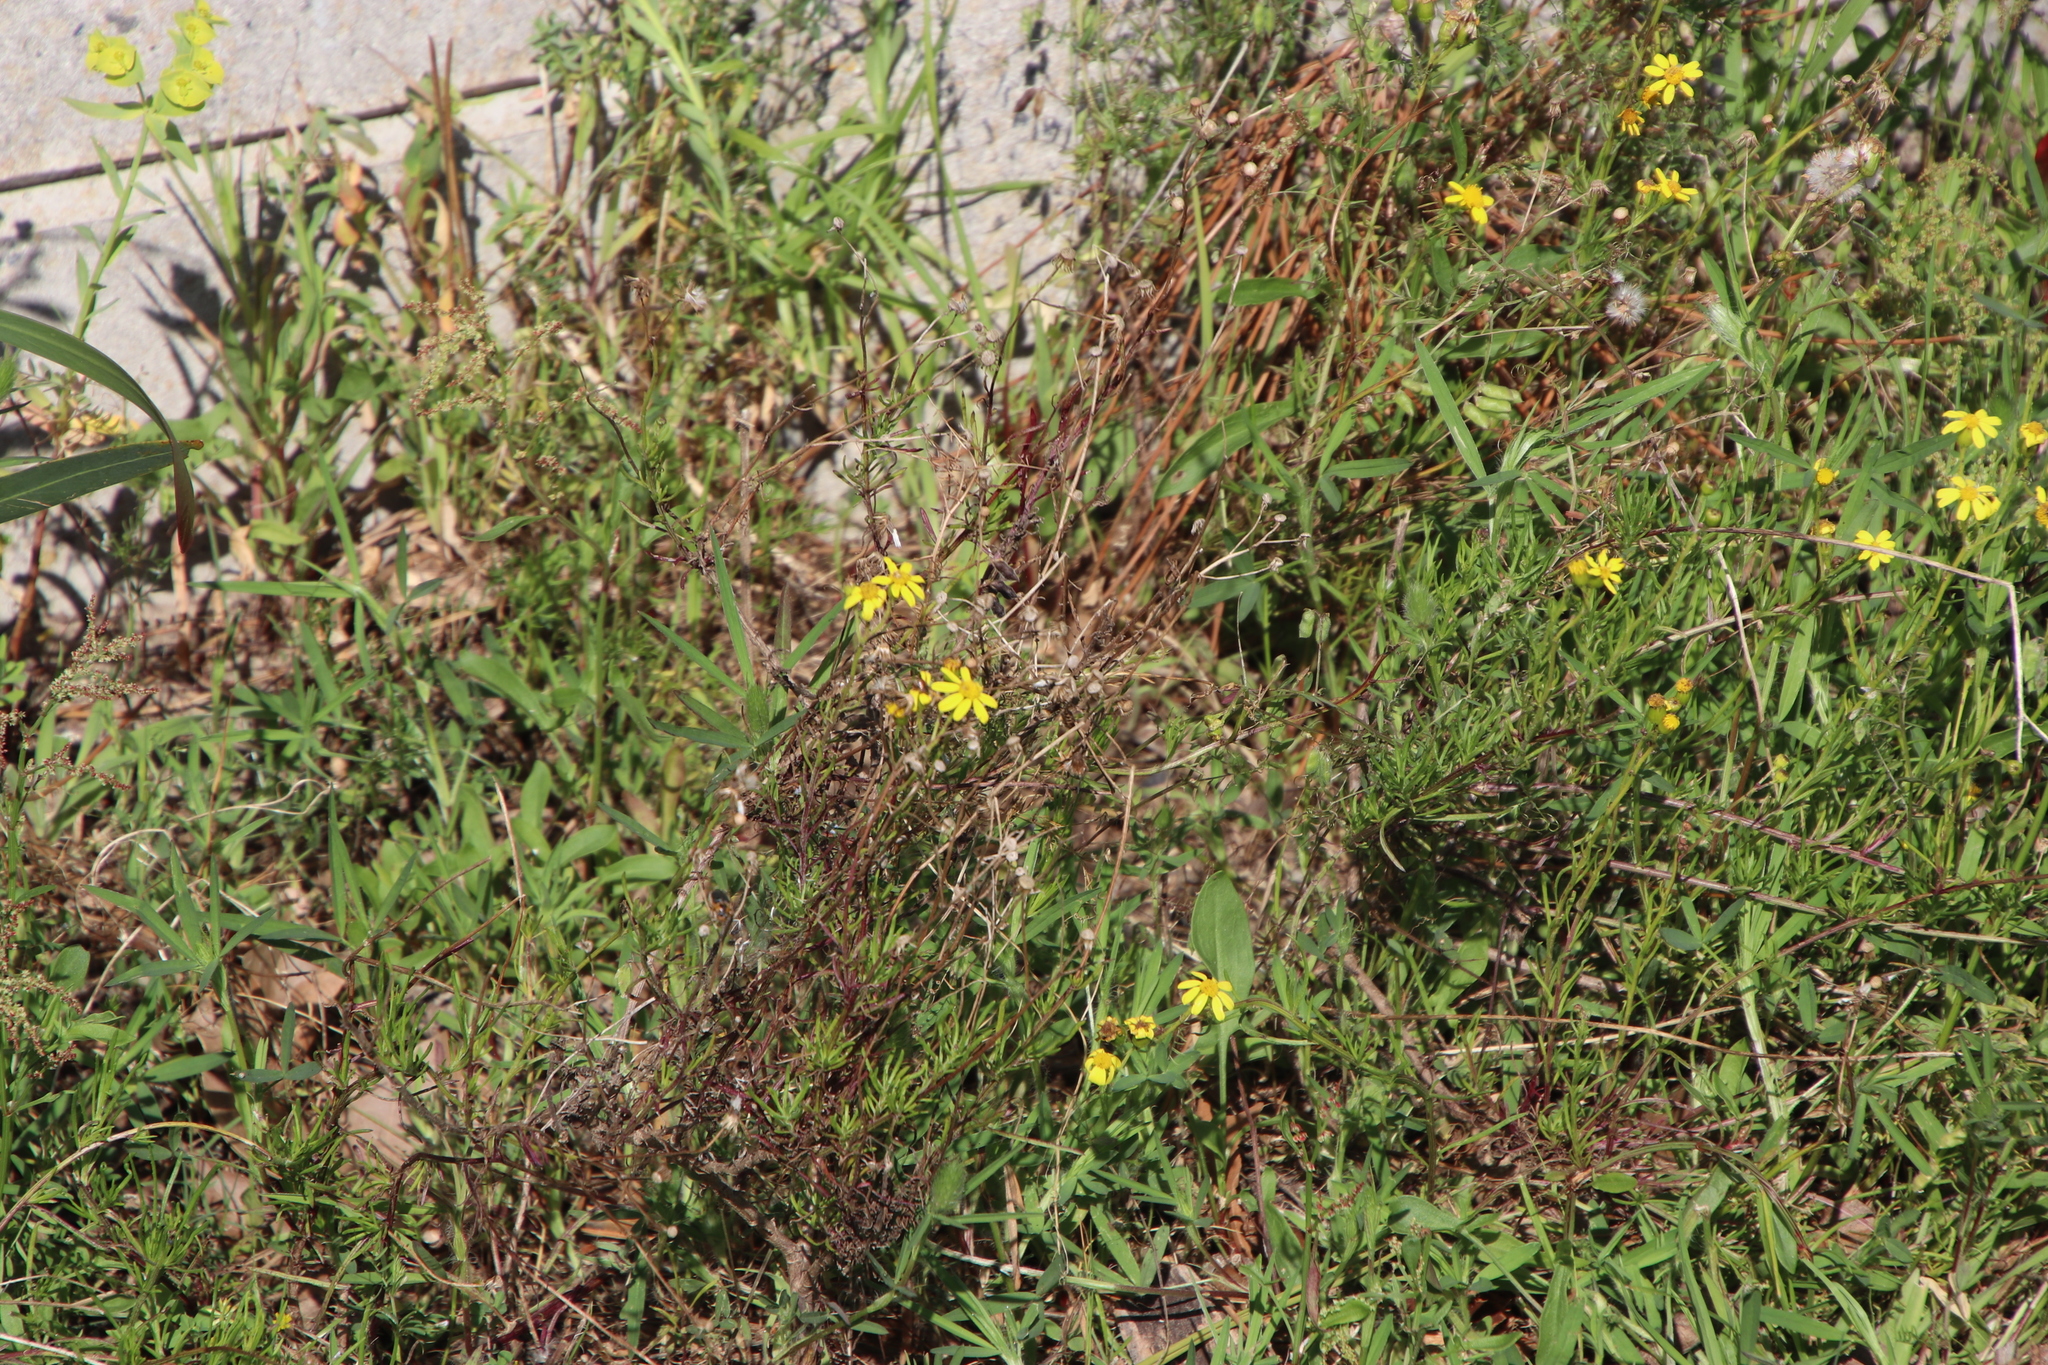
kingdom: Plantae
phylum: Tracheophyta
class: Magnoliopsida
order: Asterales
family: Asteraceae
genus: Senecio
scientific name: Senecio burchellii
